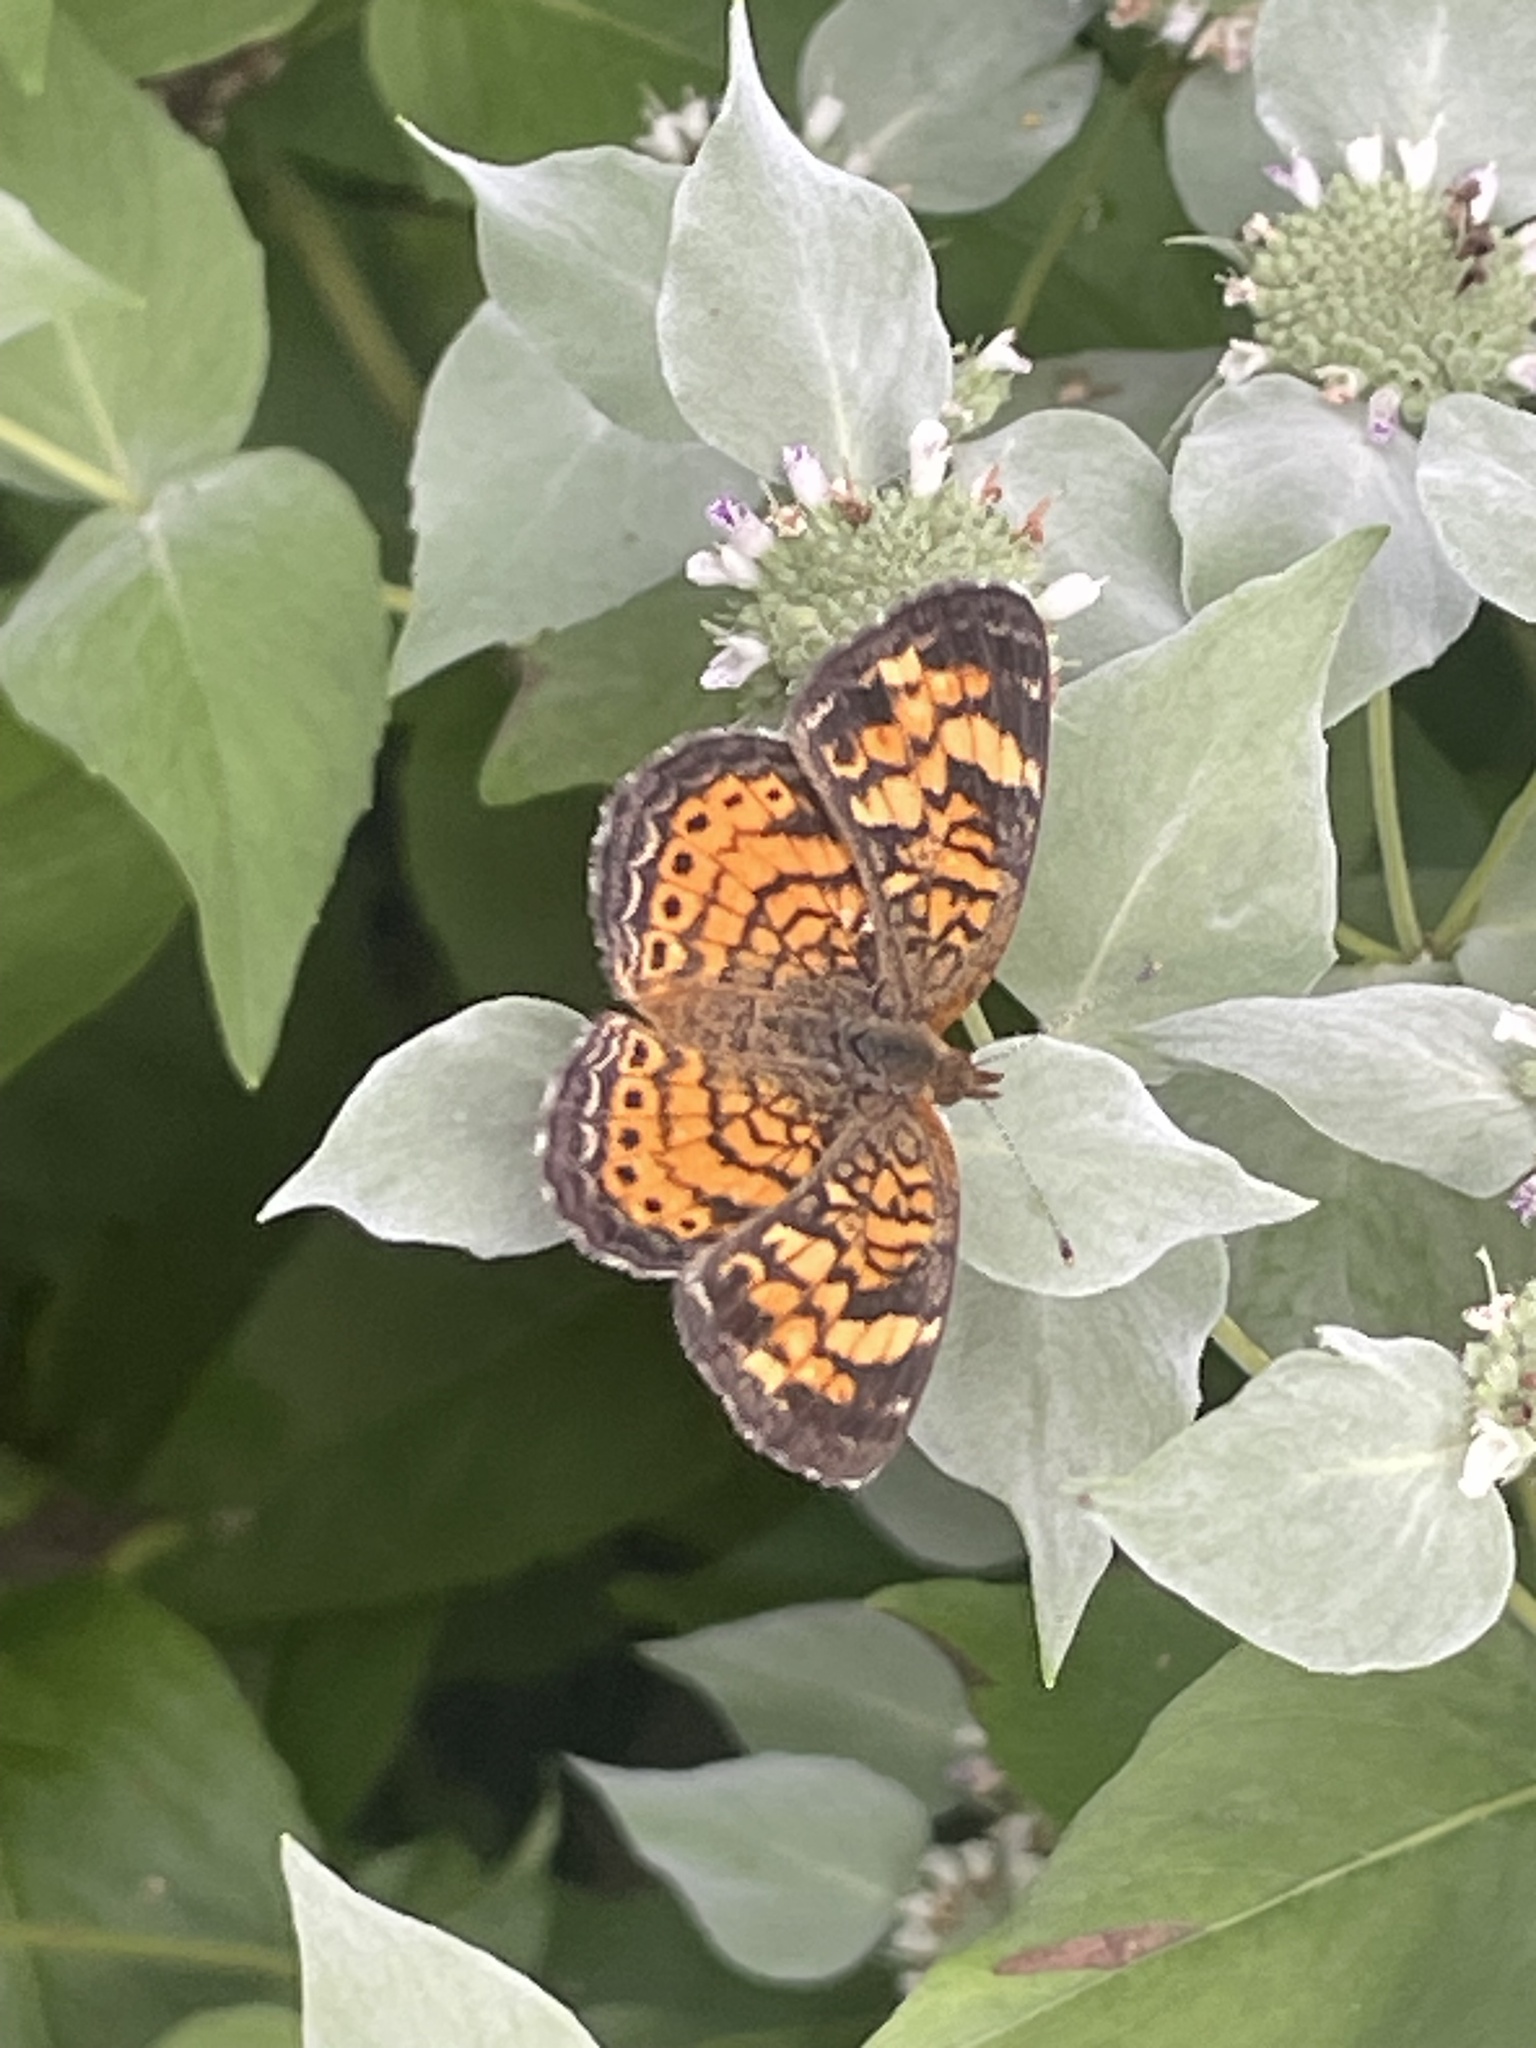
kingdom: Animalia
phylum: Arthropoda
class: Insecta
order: Lepidoptera
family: Nymphalidae
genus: Phyciodes
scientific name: Phyciodes tharos
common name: Pearl crescent
